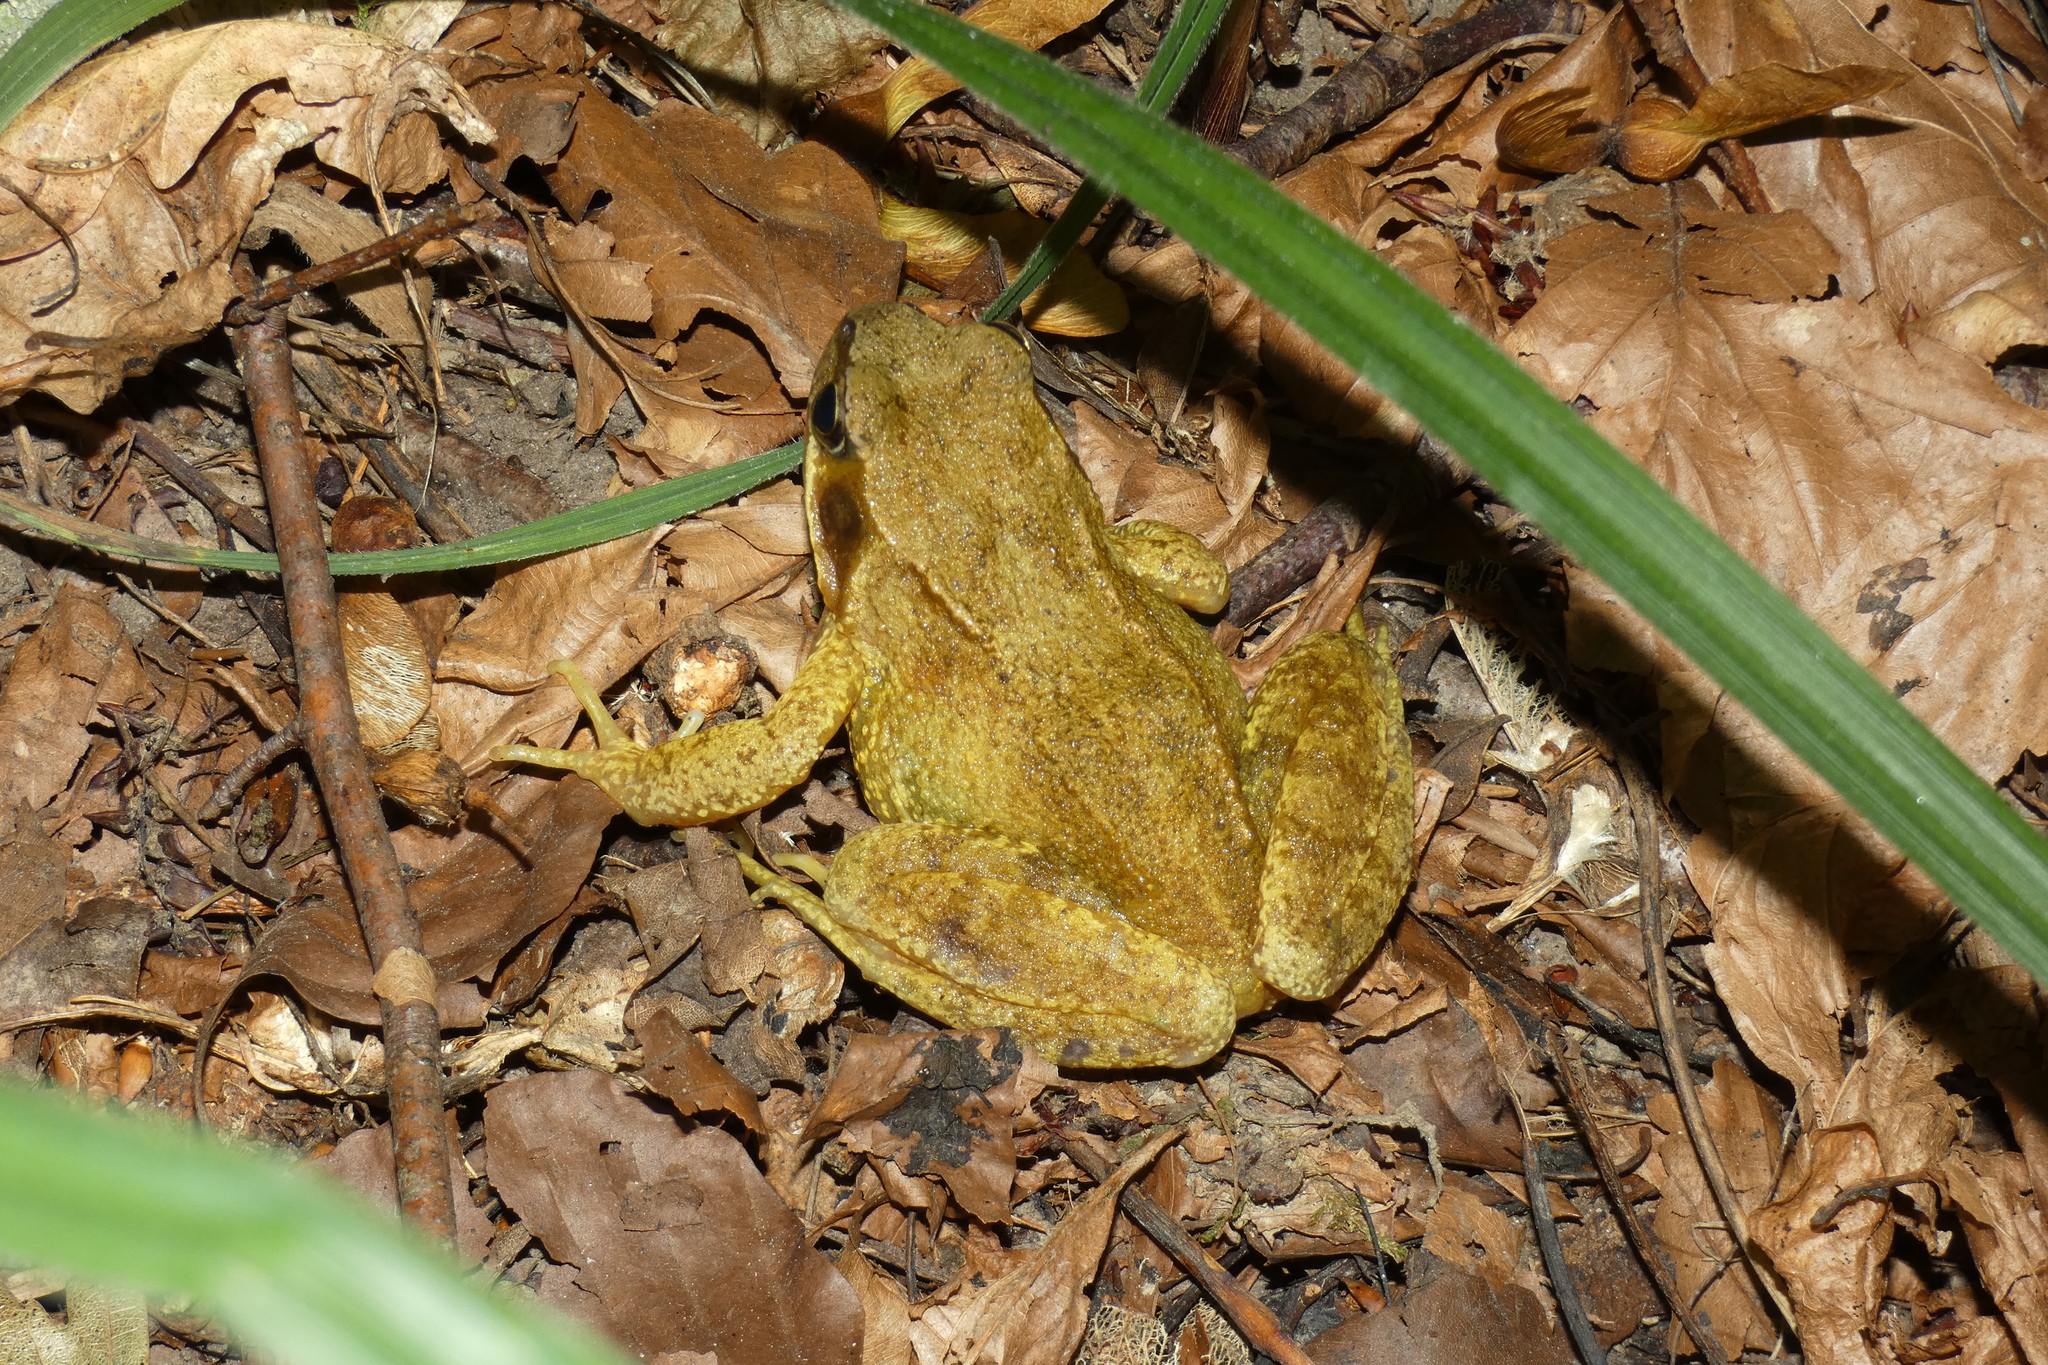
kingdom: Animalia
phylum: Chordata
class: Amphibia
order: Anura
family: Ranidae
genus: Rana
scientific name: Rana temporaria
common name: Common frog
